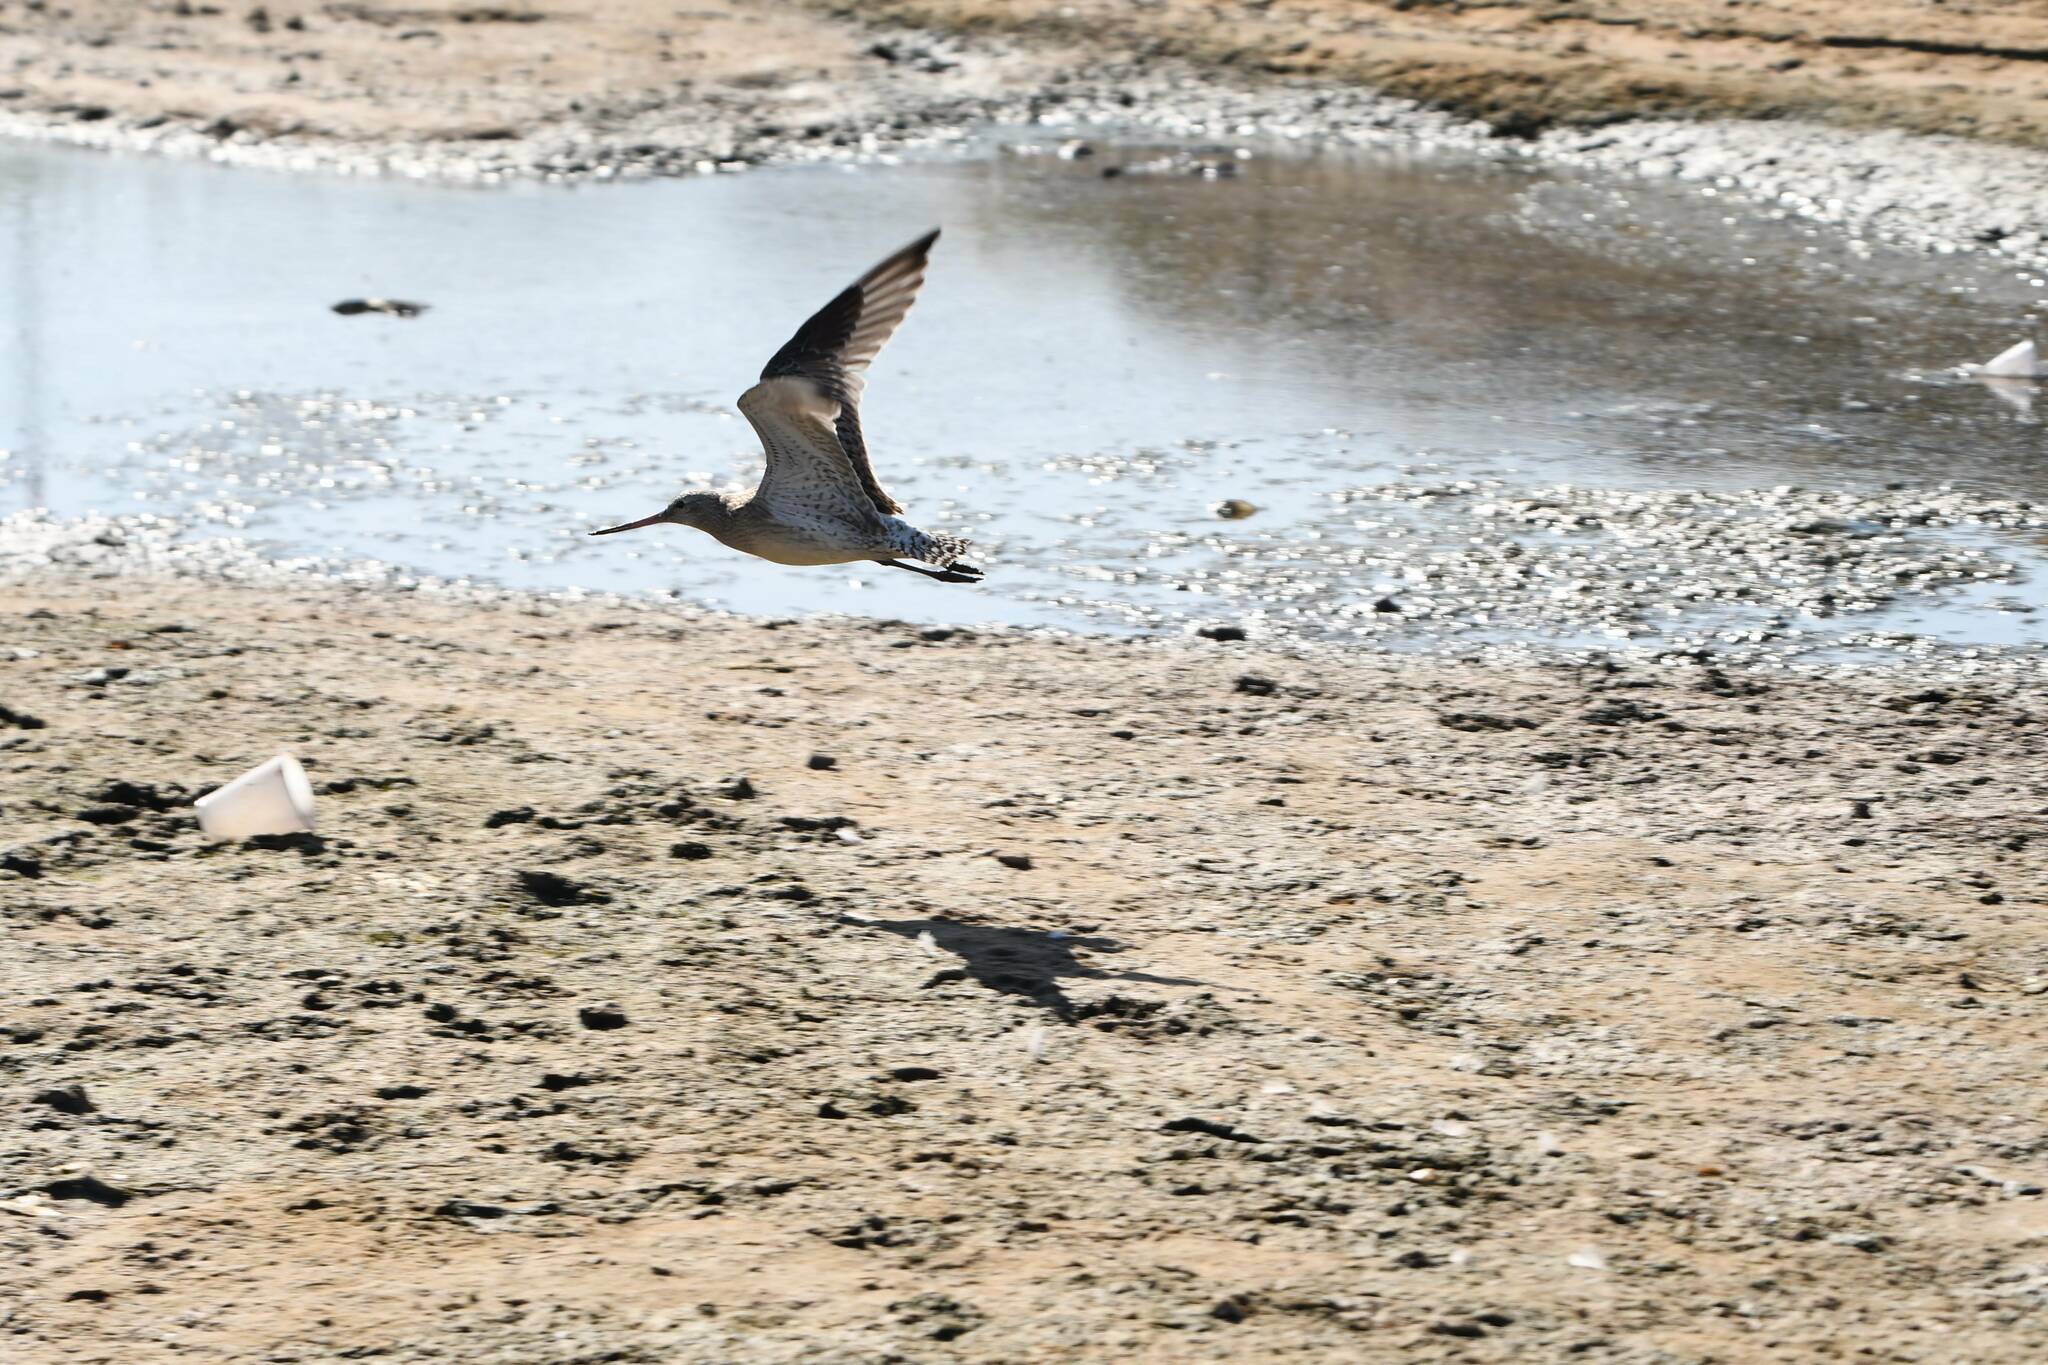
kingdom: Animalia
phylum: Chordata
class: Aves
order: Charadriiformes
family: Scolopacidae
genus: Limosa
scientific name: Limosa lapponica
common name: Bar-tailed godwit
